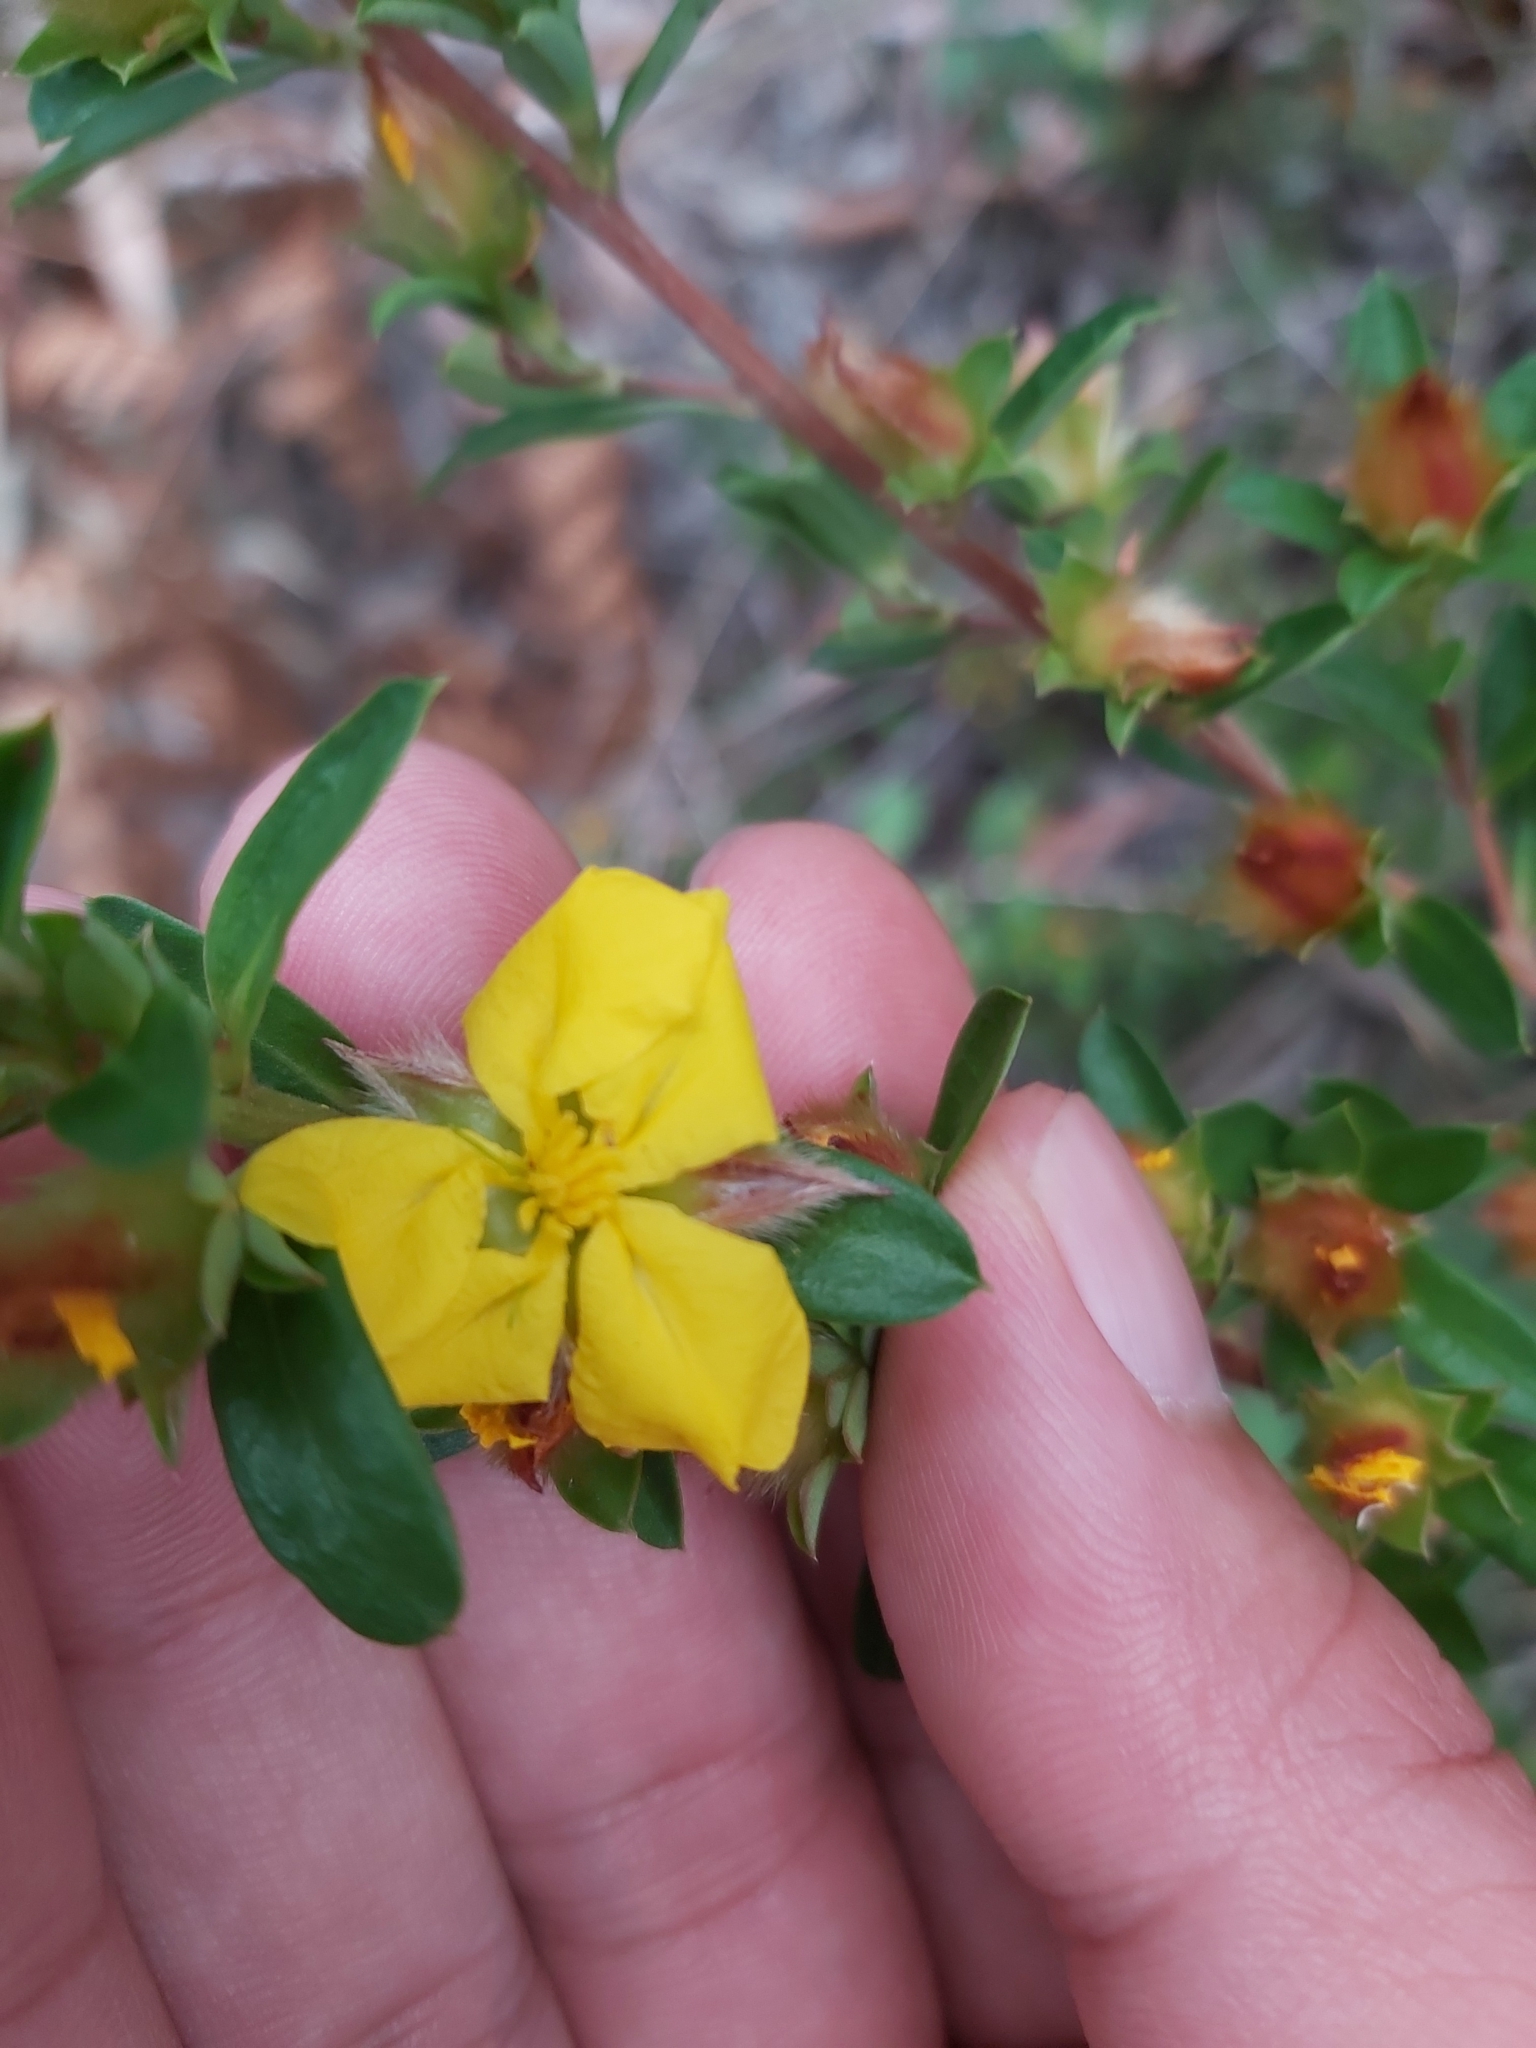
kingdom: Plantae
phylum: Tracheophyta
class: Magnoliopsida
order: Dilleniales
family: Dilleniaceae
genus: Hibbertia
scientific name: Hibbertia bracteata
